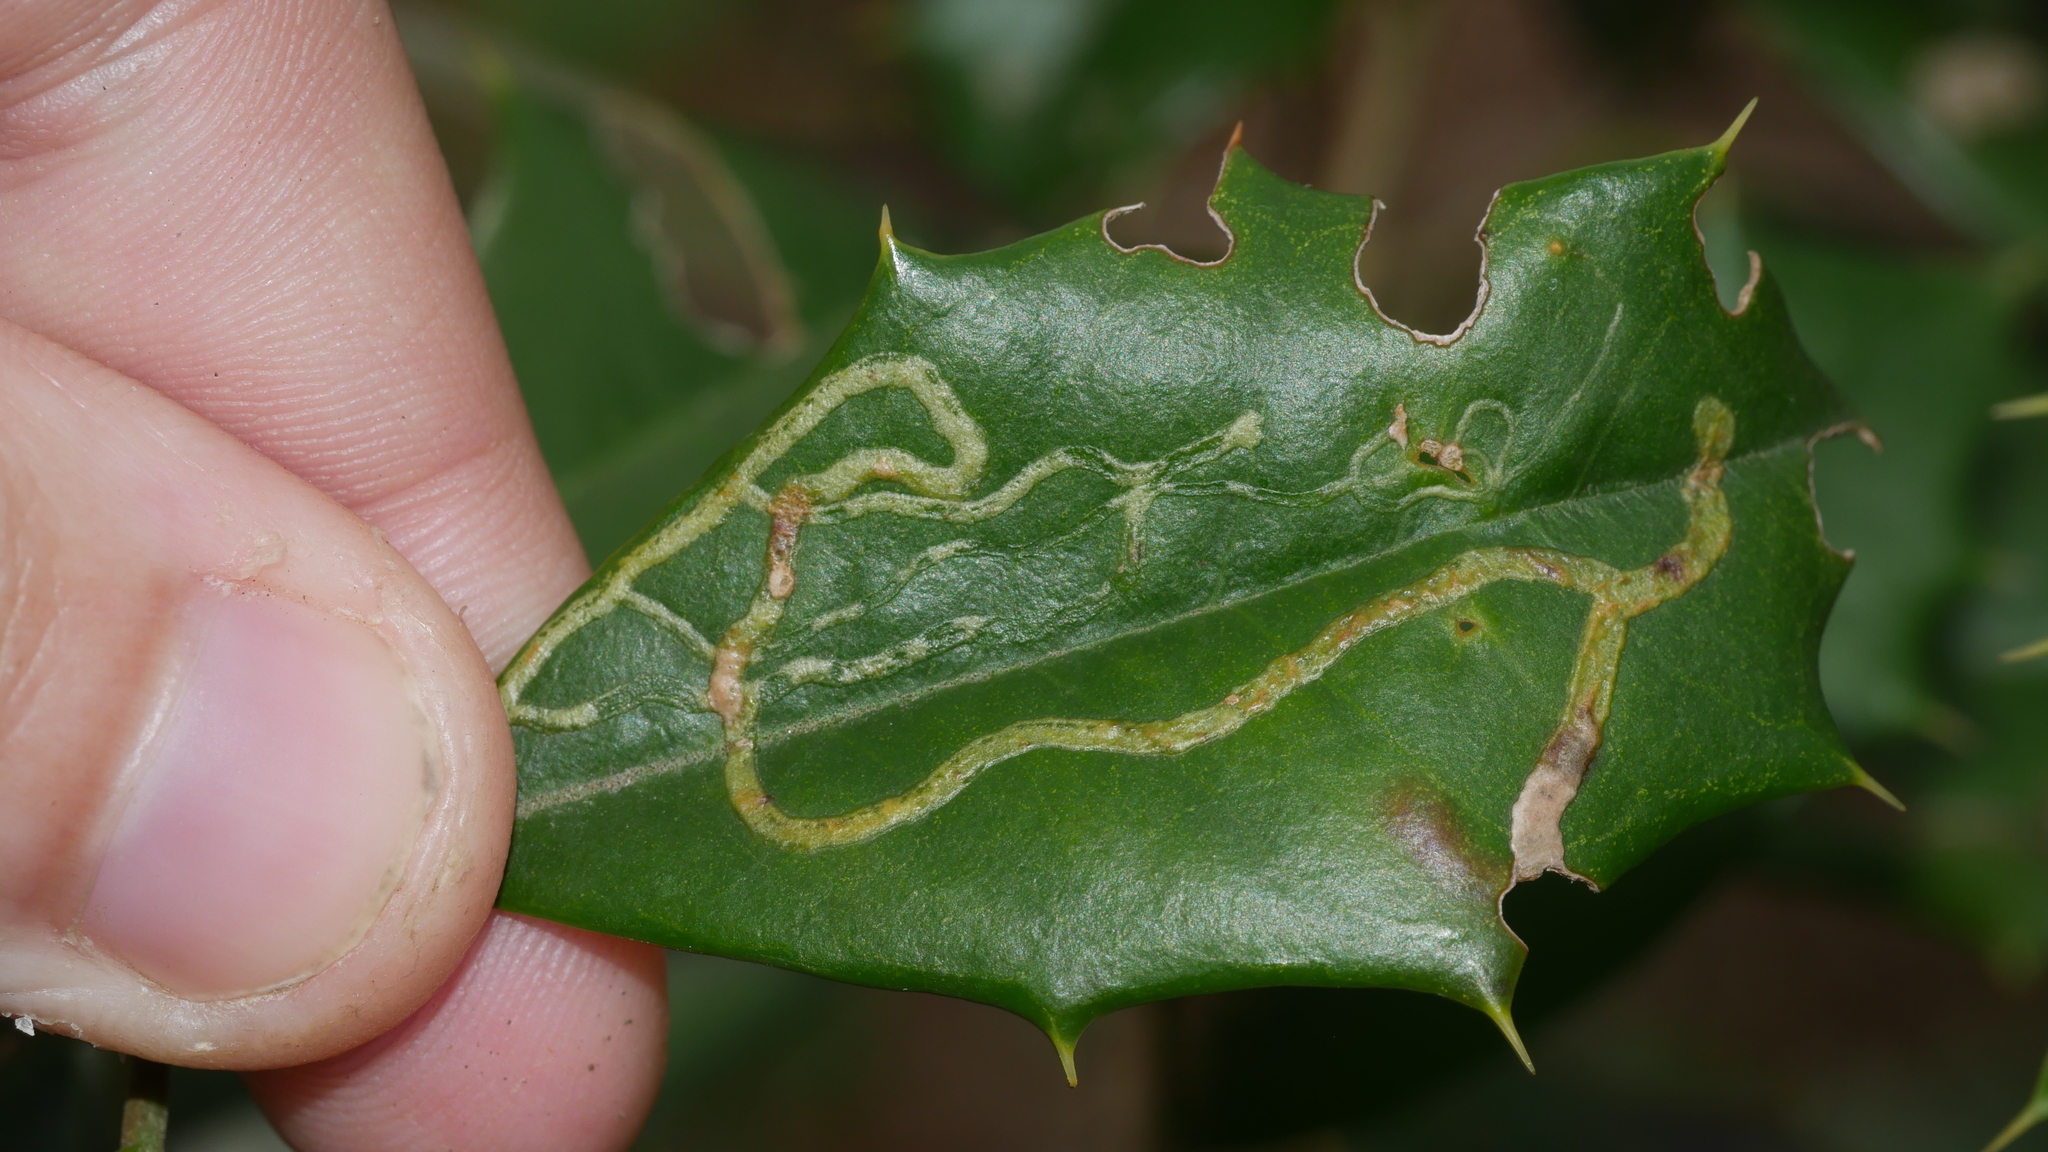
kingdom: Animalia
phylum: Arthropoda
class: Insecta
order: Diptera
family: Agromyzidae
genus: Phytomyza
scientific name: Phytomyza opacae
